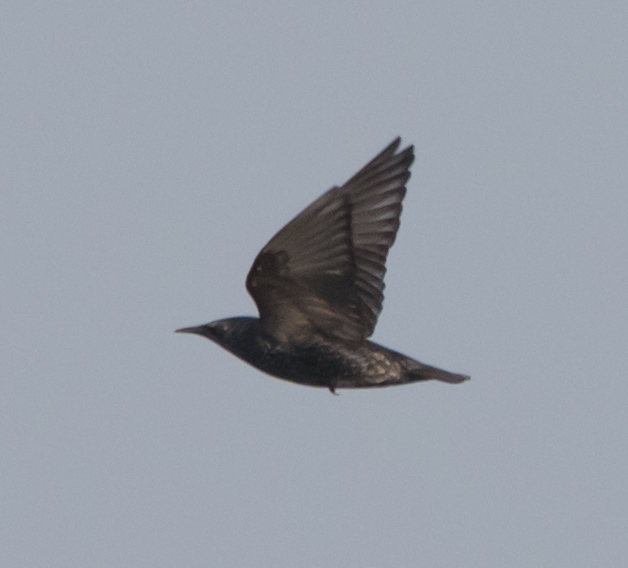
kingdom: Animalia
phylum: Chordata
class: Aves
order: Passeriformes
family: Sturnidae
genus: Sturnus
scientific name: Sturnus unicolor
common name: Spotless starling
